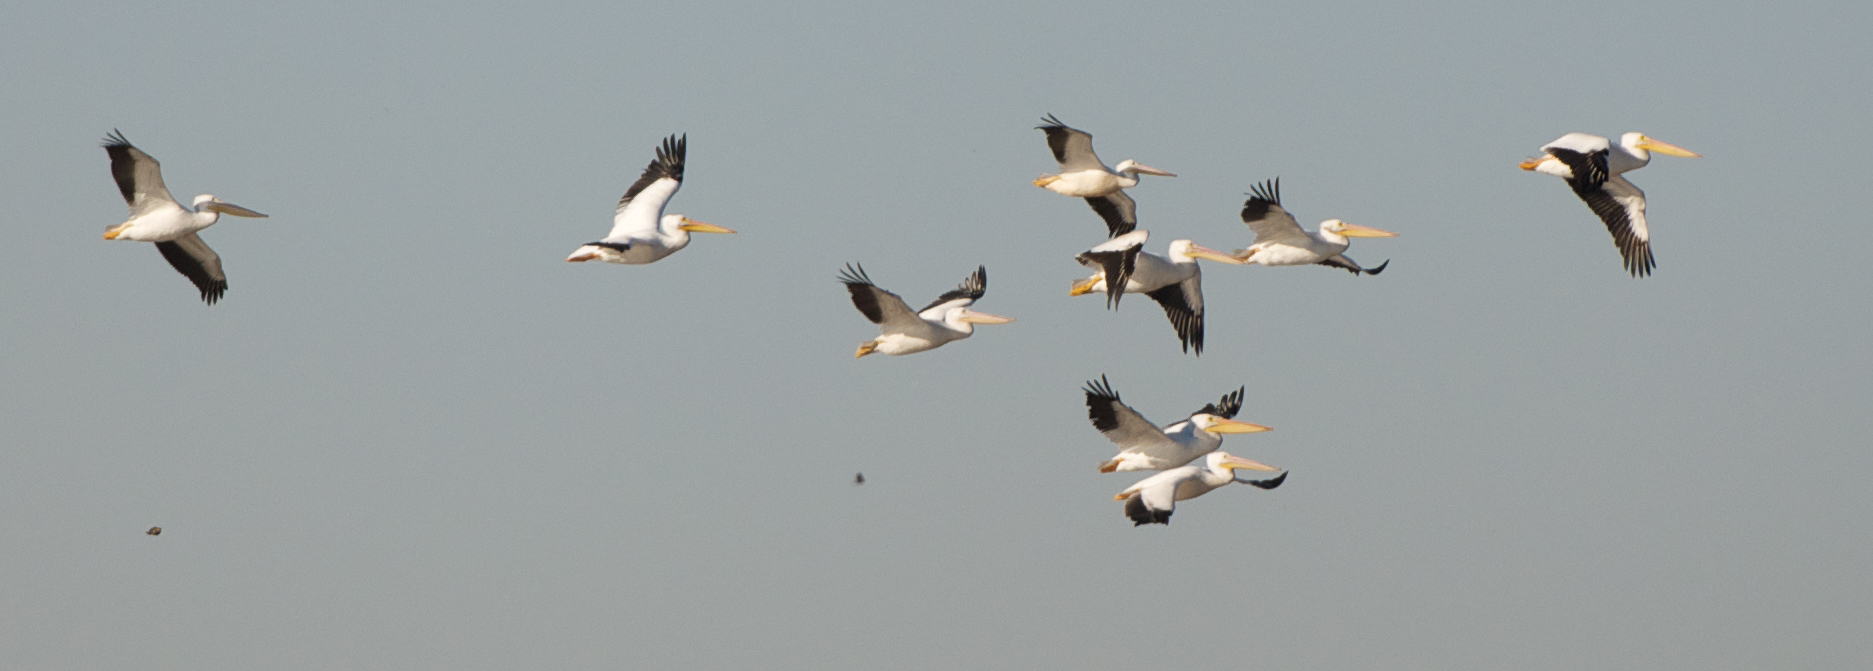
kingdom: Animalia
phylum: Chordata
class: Aves
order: Pelecaniformes
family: Pelecanidae
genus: Pelecanus
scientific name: Pelecanus erythrorhynchos
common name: American white pelican
